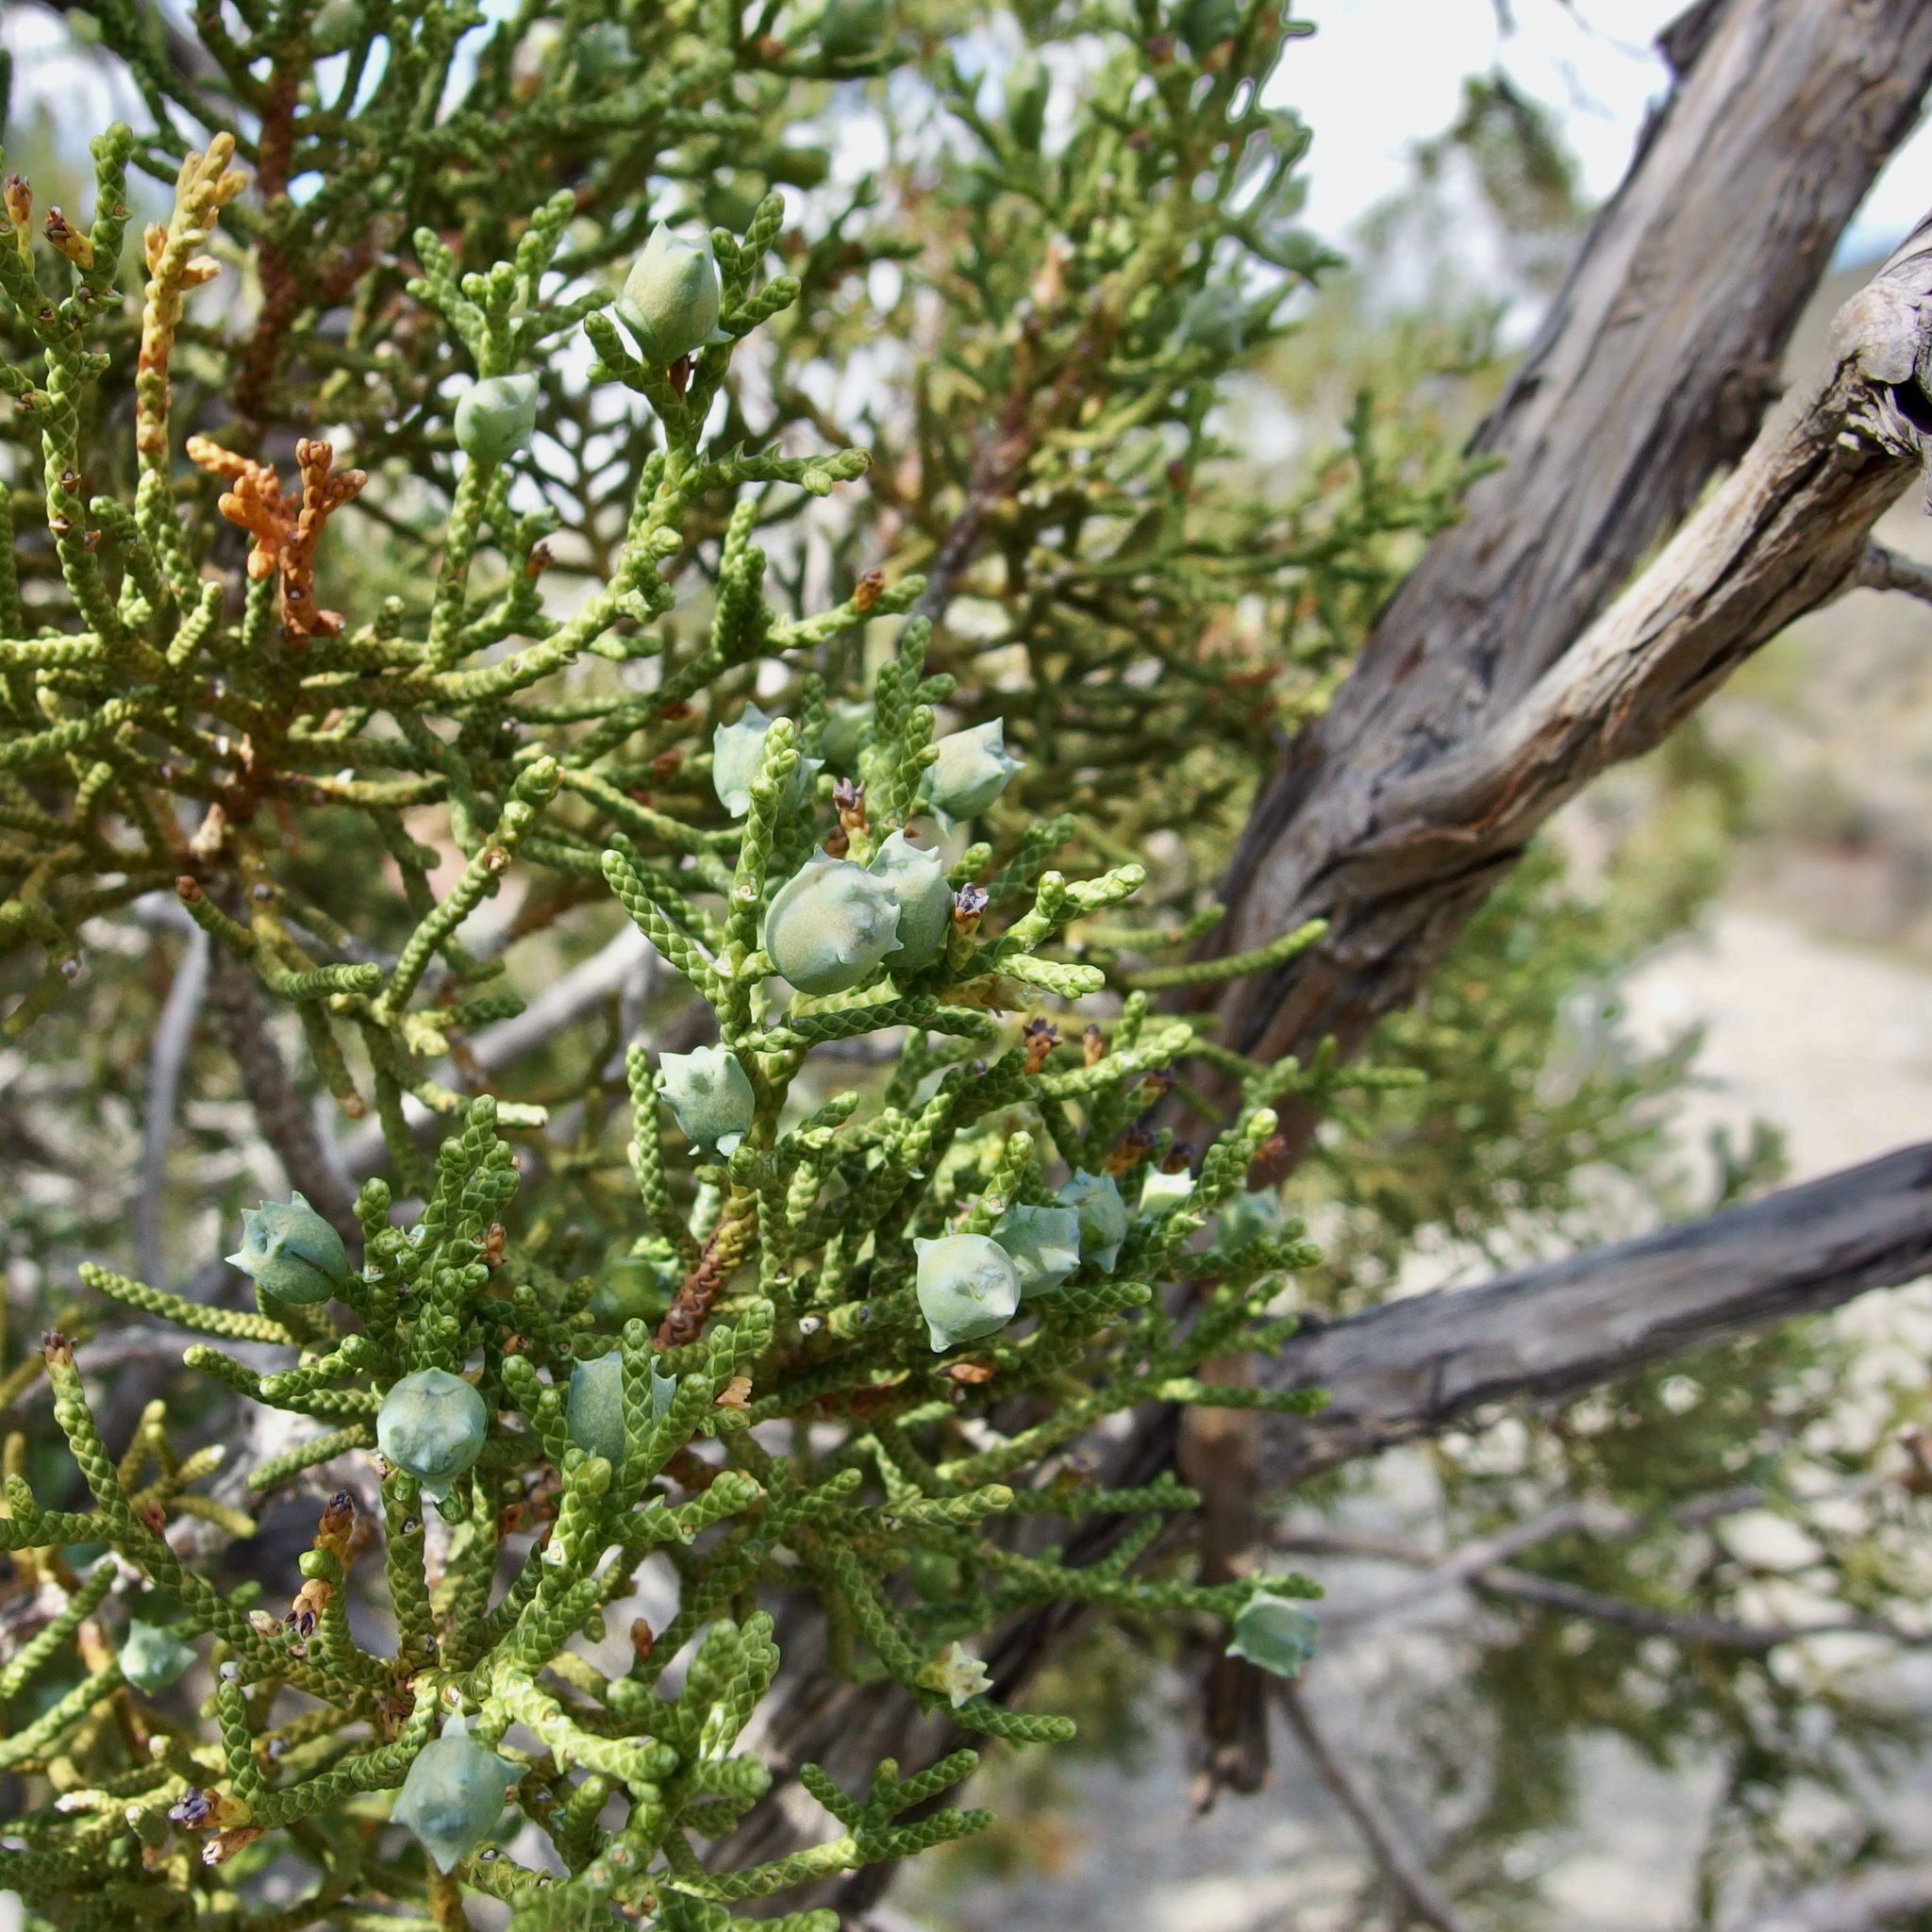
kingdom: Plantae
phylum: Tracheophyta
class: Pinopsida
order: Pinales
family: Cupressaceae
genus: Juniperus
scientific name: Juniperus californica
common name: California juniper
